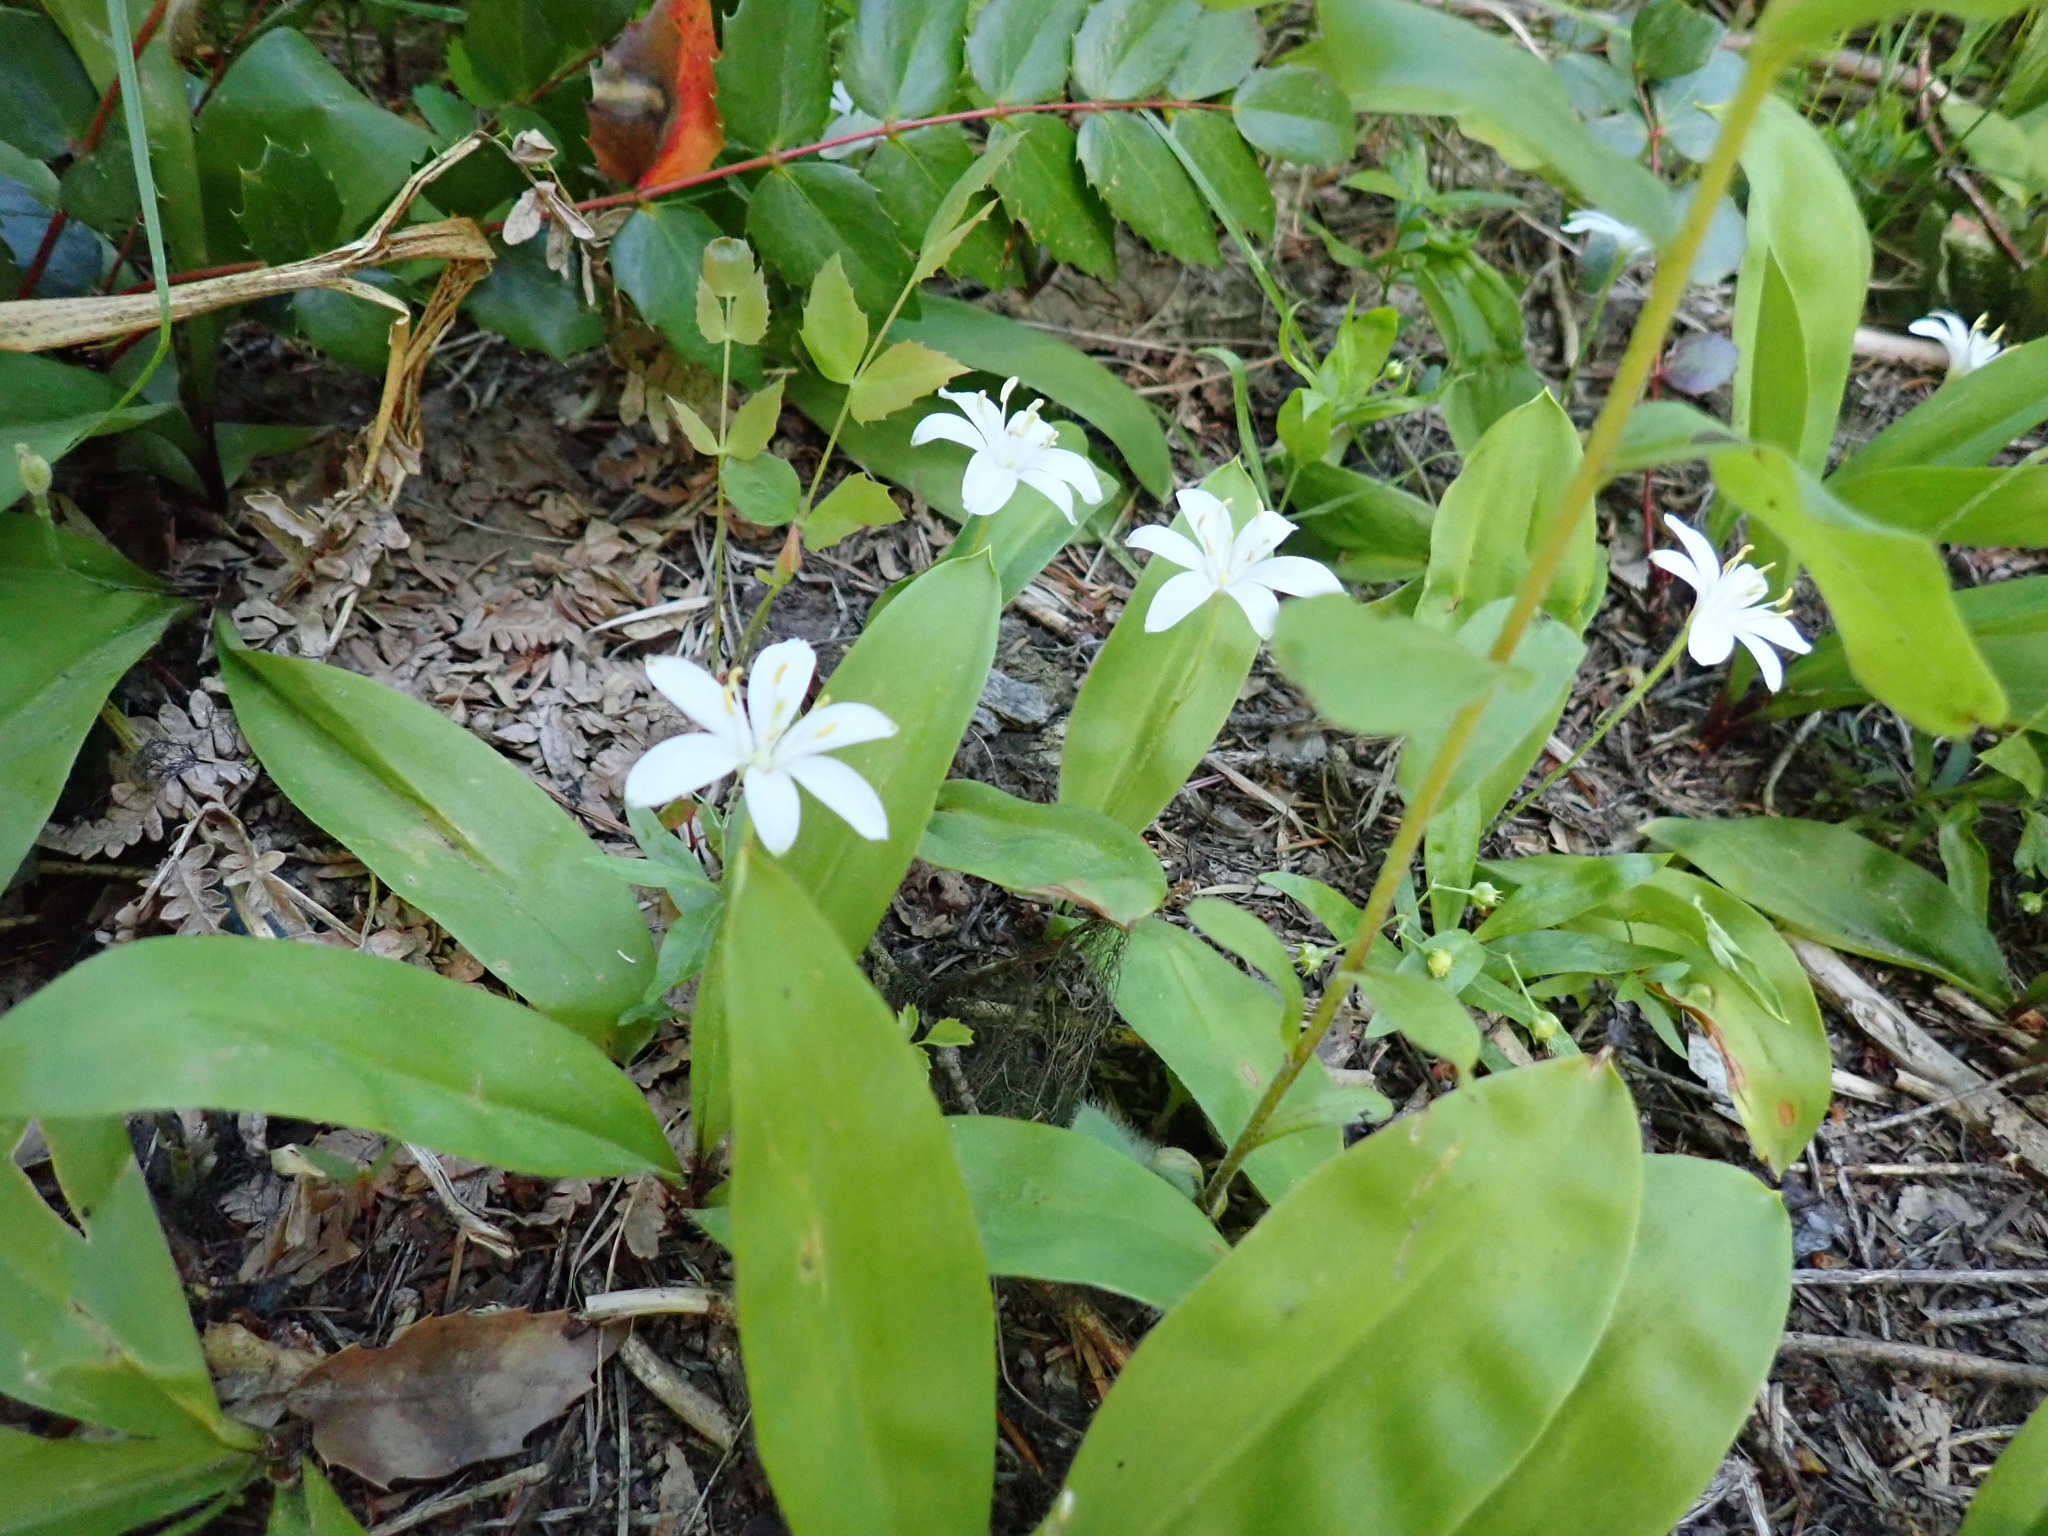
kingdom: Plantae
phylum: Tracheophyta
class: Liliopsida
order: Liliales
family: Liliaceae
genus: Clintonia
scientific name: Clintonia uniflora
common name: Queen's cup
